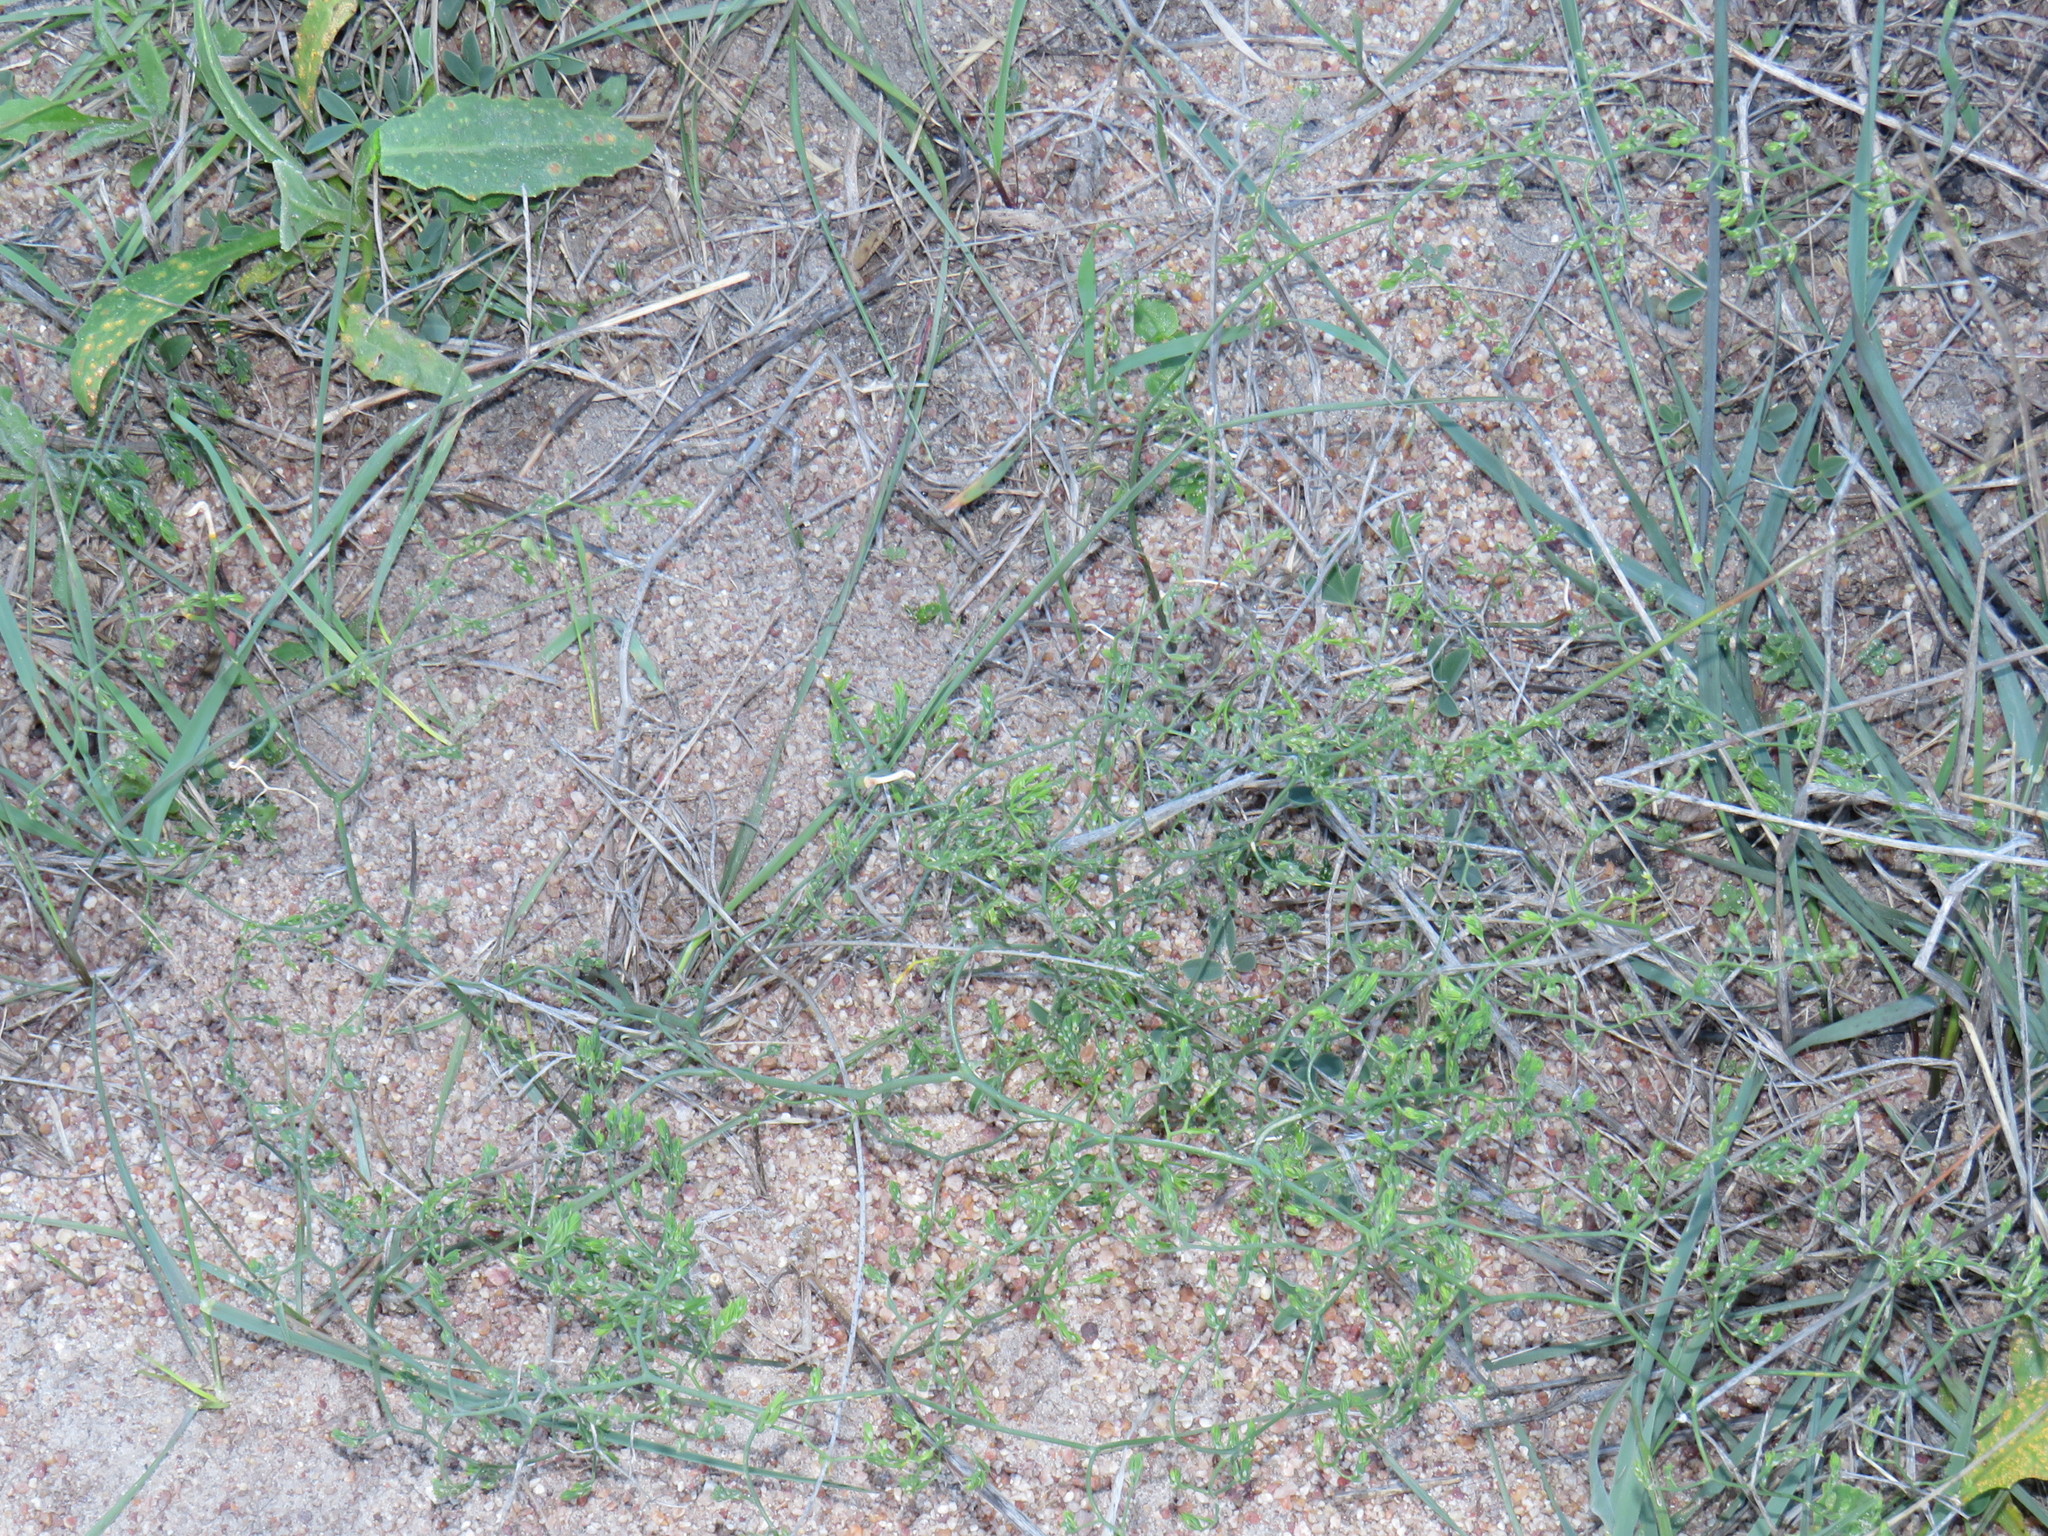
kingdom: Plantae
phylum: Tracheophyta
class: Liliopsida
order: Asparagales
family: Asparagaceae
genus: Asparagus
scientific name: Asparagus declinatus
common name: Bridal-creeper
